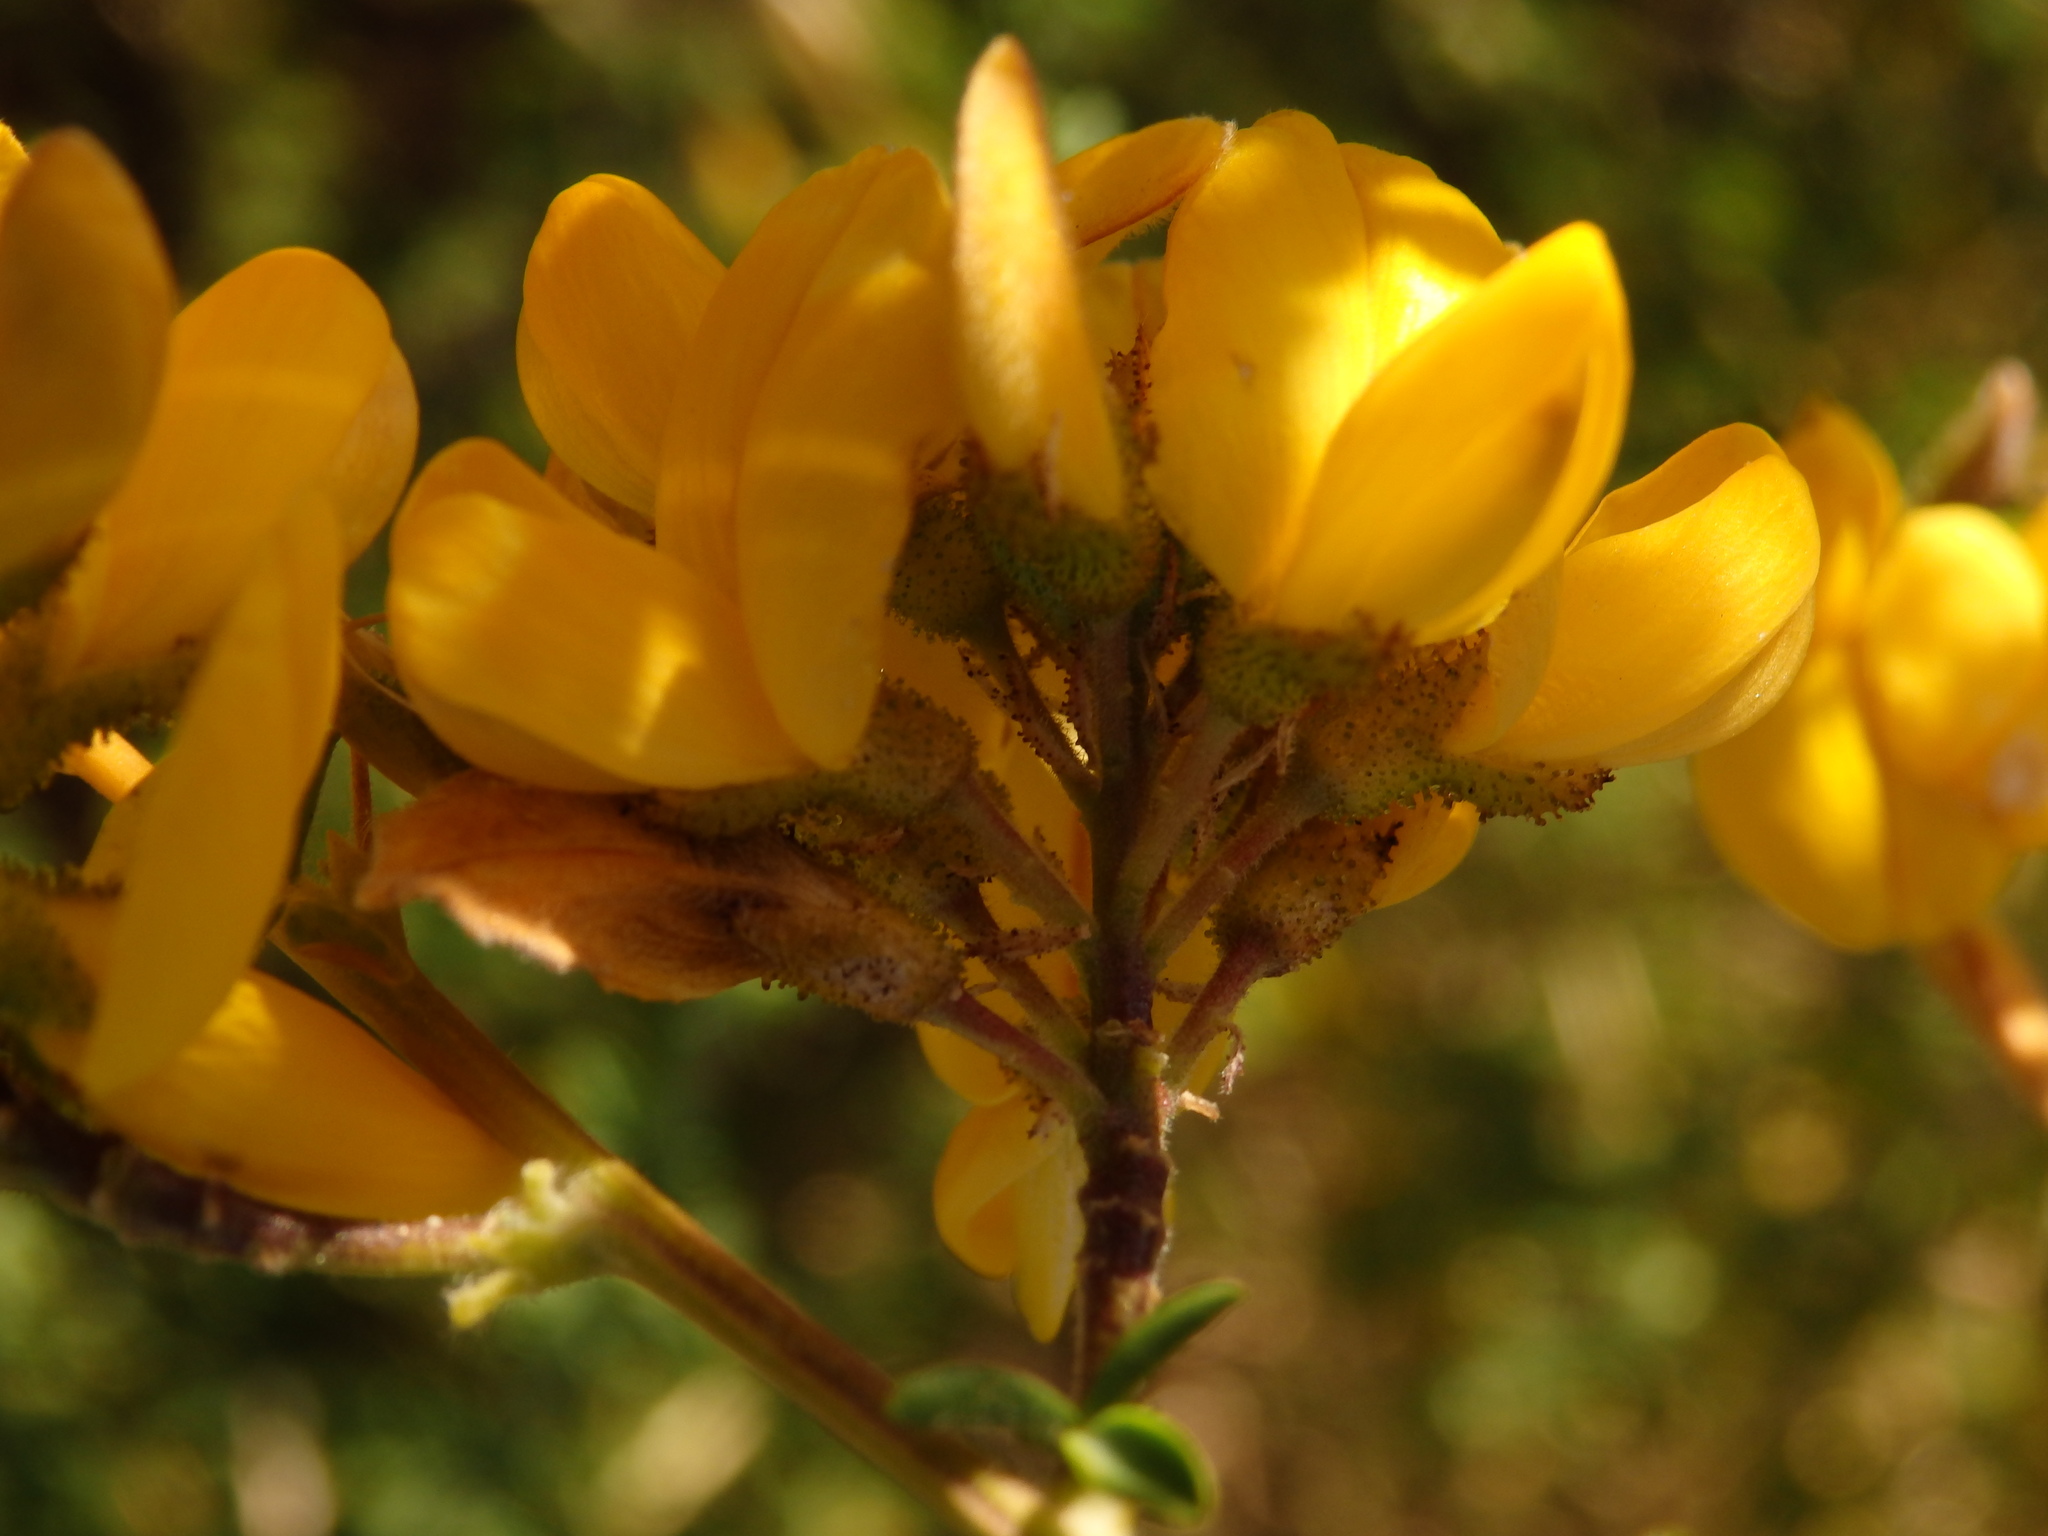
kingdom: Plantae
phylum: Tracheophyta
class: Magnoliopsida
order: Fabales
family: Fabaceae
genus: Adenocarpus
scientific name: Adenocarpus complicatus
